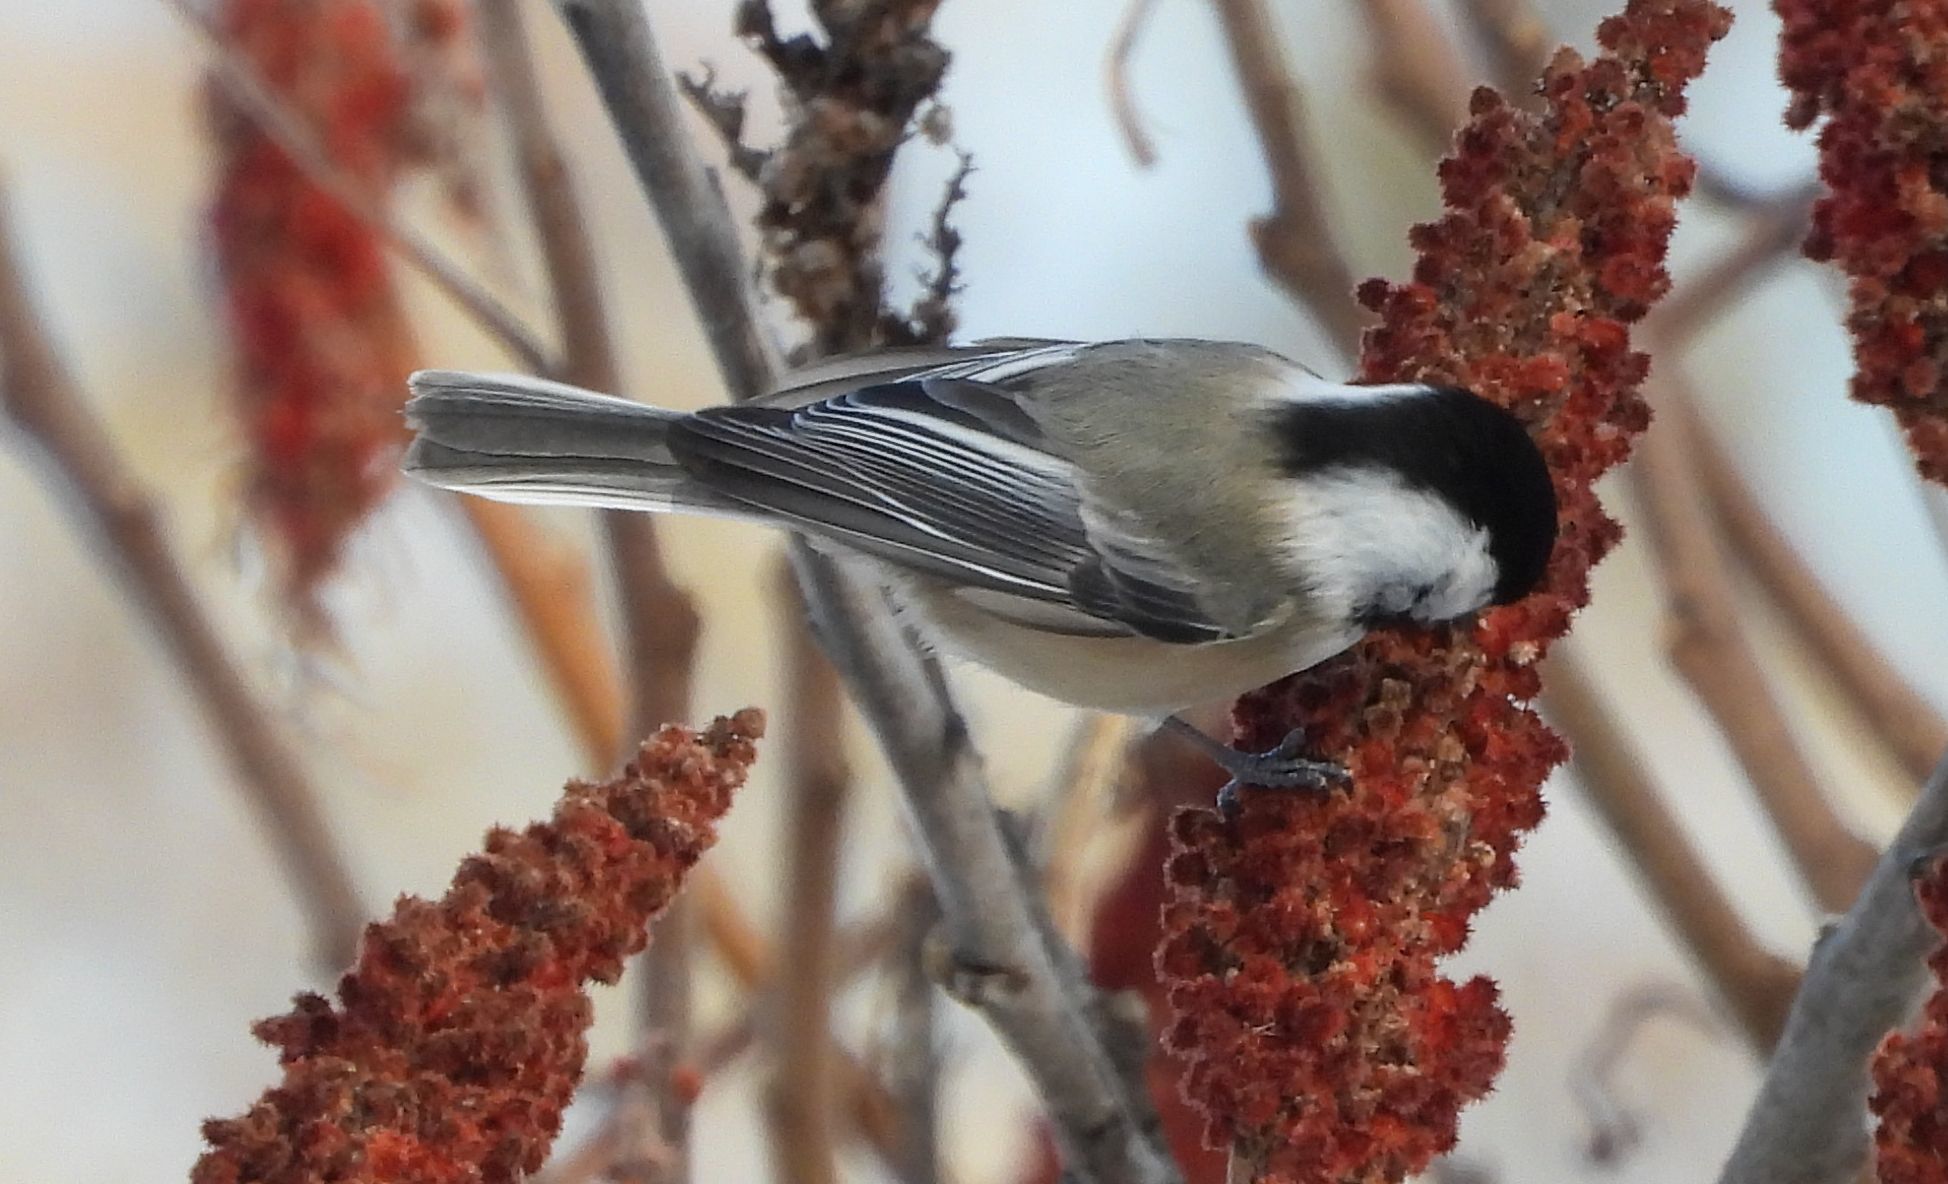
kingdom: Animalia
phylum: Chordata
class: Aves
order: Passeriformes
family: Paridae
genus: Poecile
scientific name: Poecile atricapillus
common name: Black-capped chickadee
